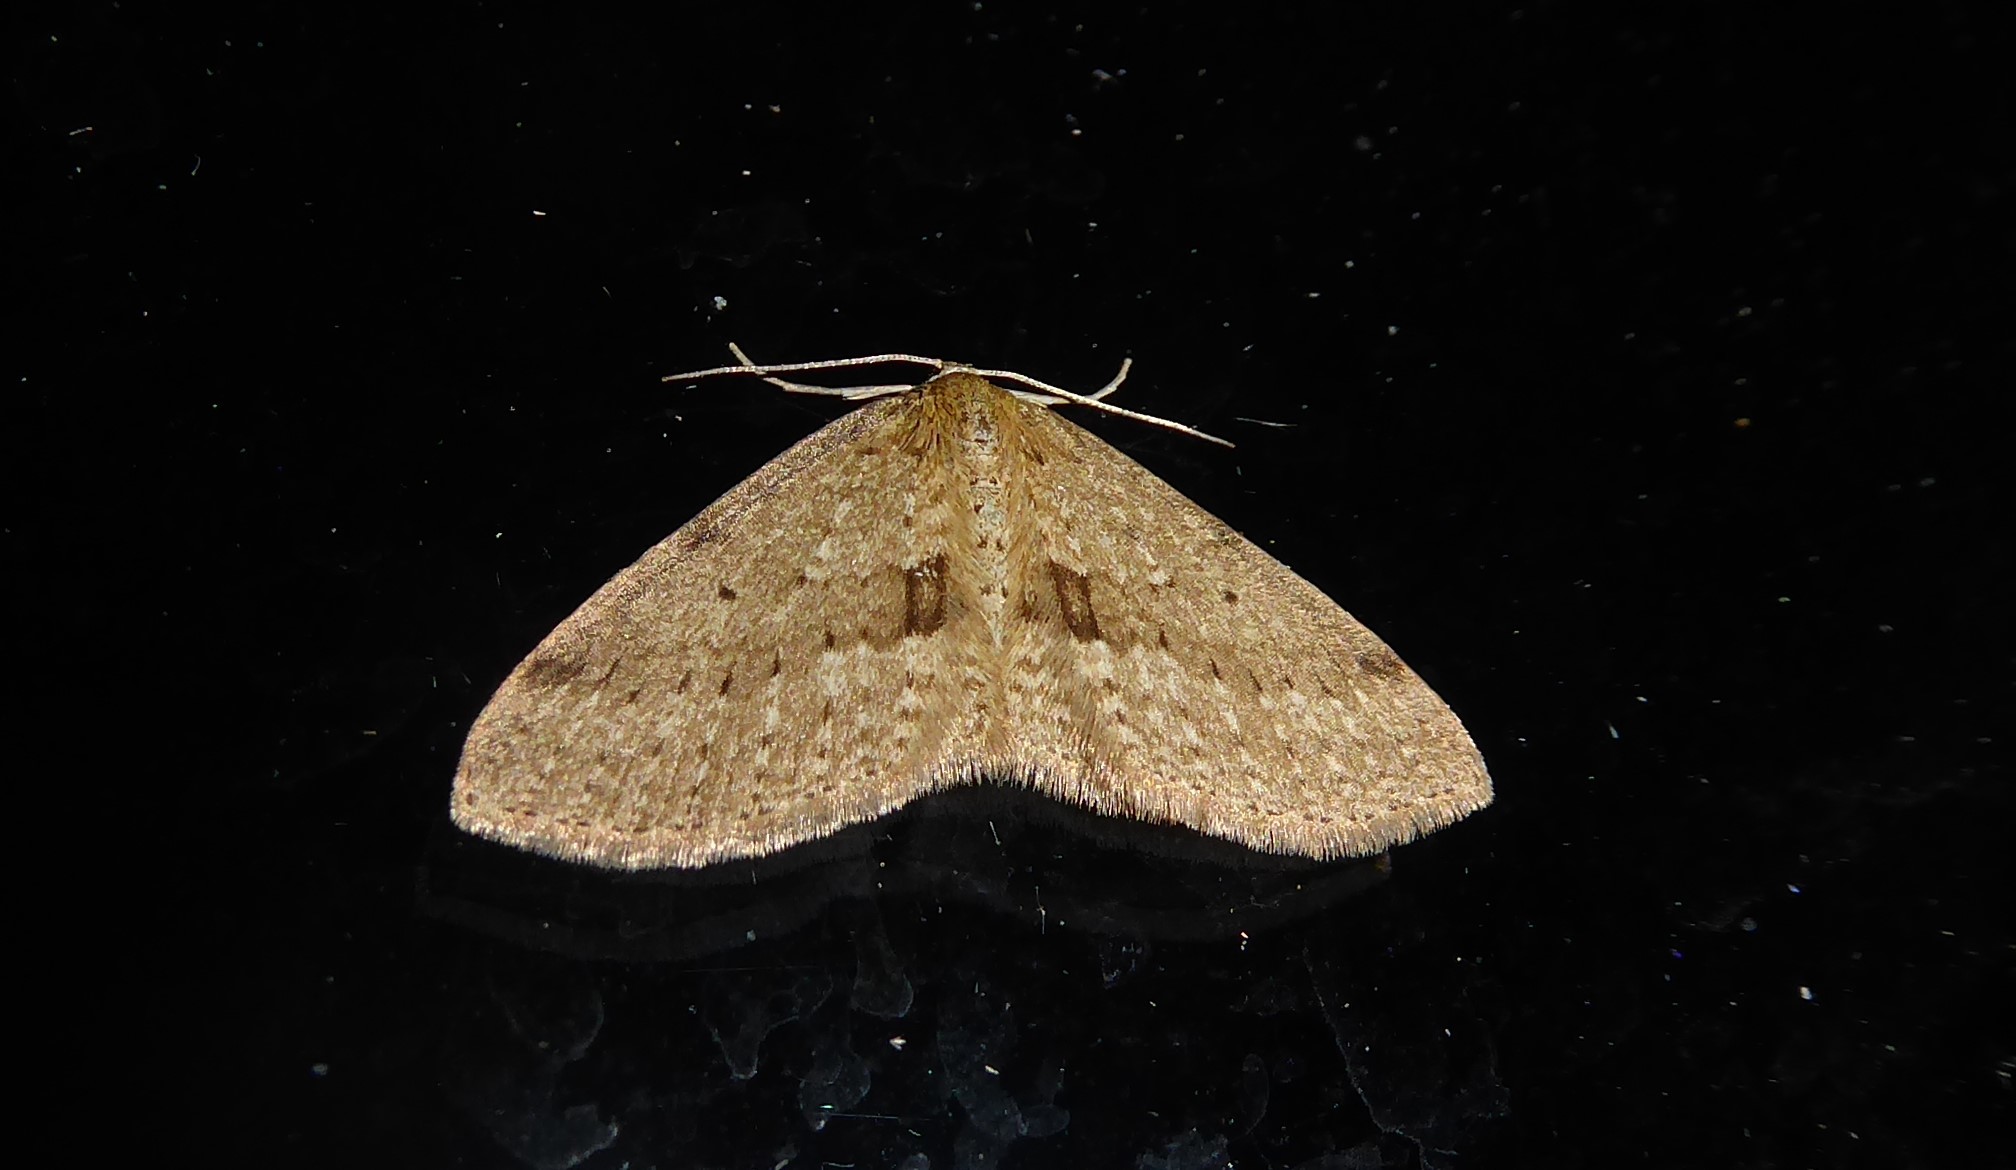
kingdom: Animalia
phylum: Arthropoda
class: Insecta
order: Lepidoptera
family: Geometridae
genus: Poecilasthena
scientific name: Poecilasthena schistaria
